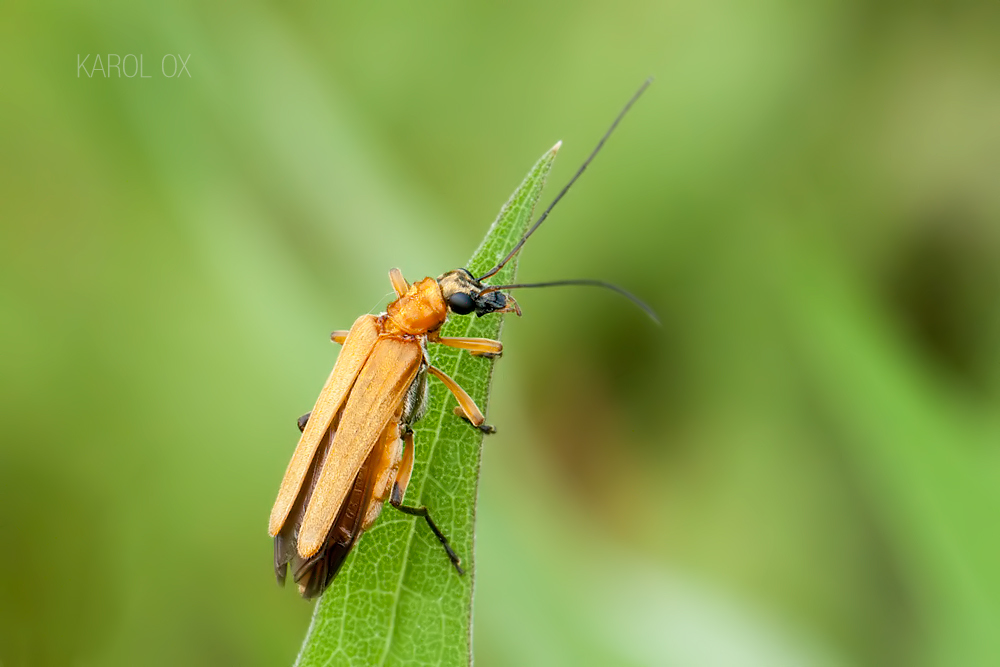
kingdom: Animalia
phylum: Arthropoda
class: Insecta
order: Coleoptera
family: Oedemeridae
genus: Oedemera
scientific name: Oedemera podagrariae
